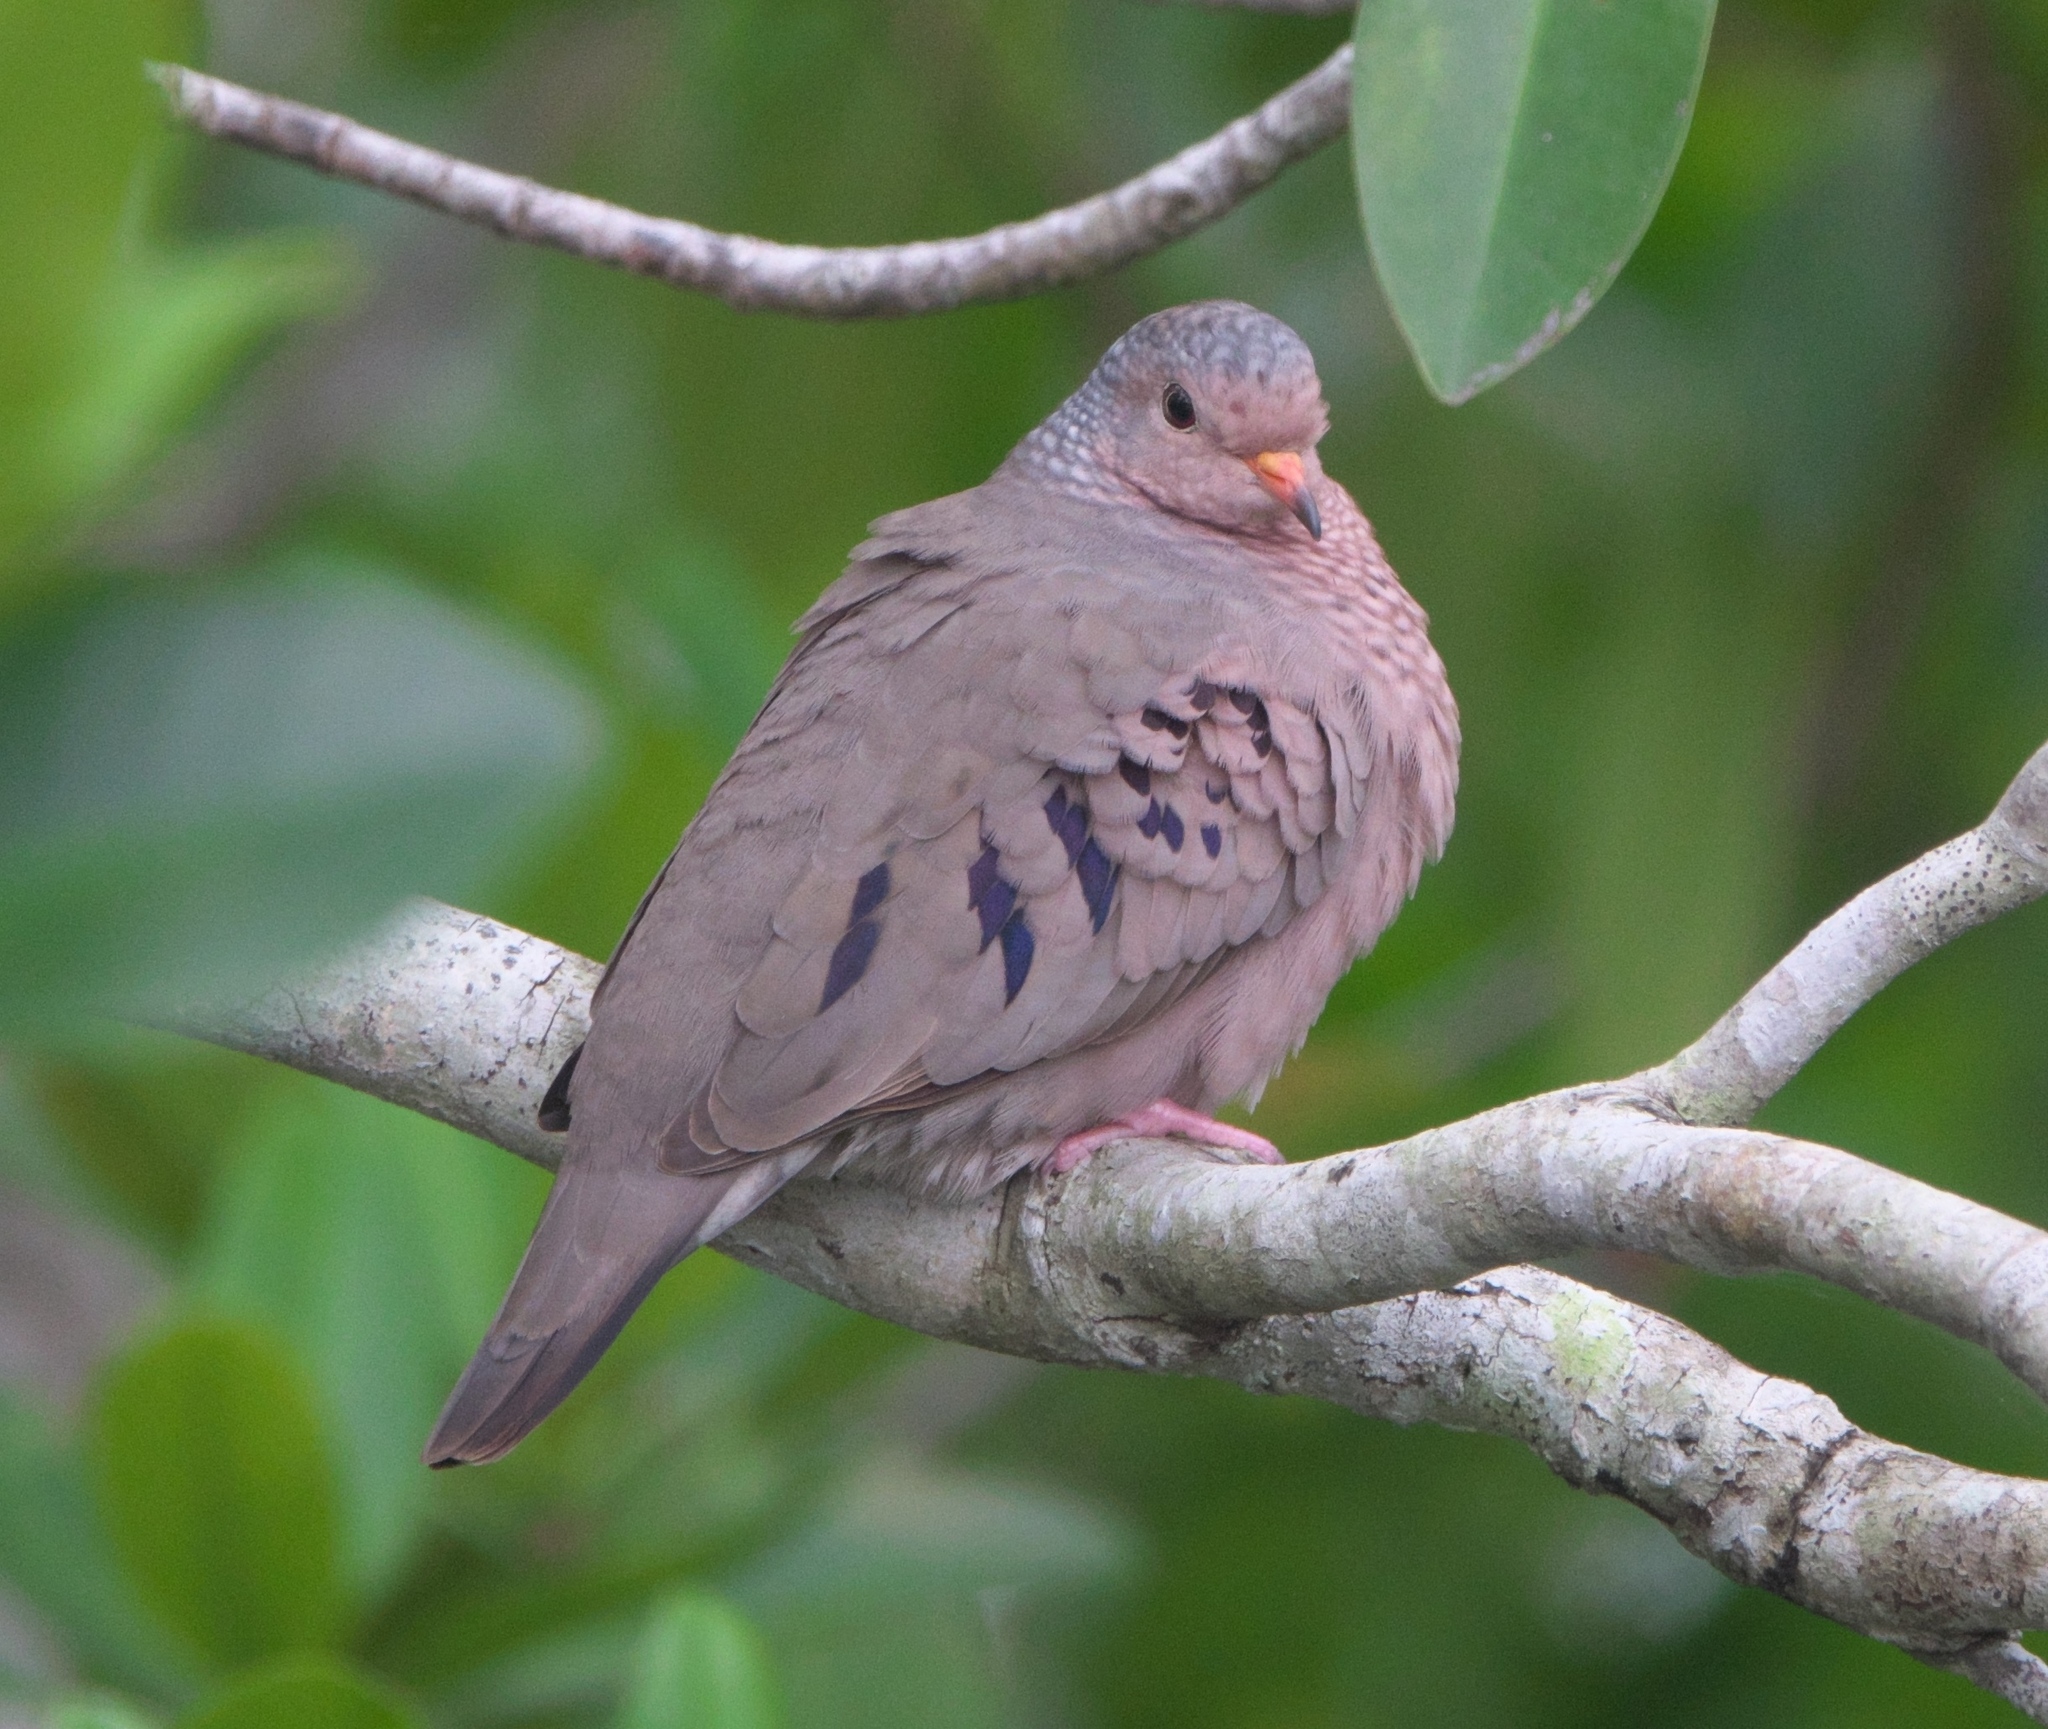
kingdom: Animalia
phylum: Chordata
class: Aves
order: Columbiformes
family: Columbidae
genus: Columbina
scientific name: Columbina passerina
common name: Common ground-dove
